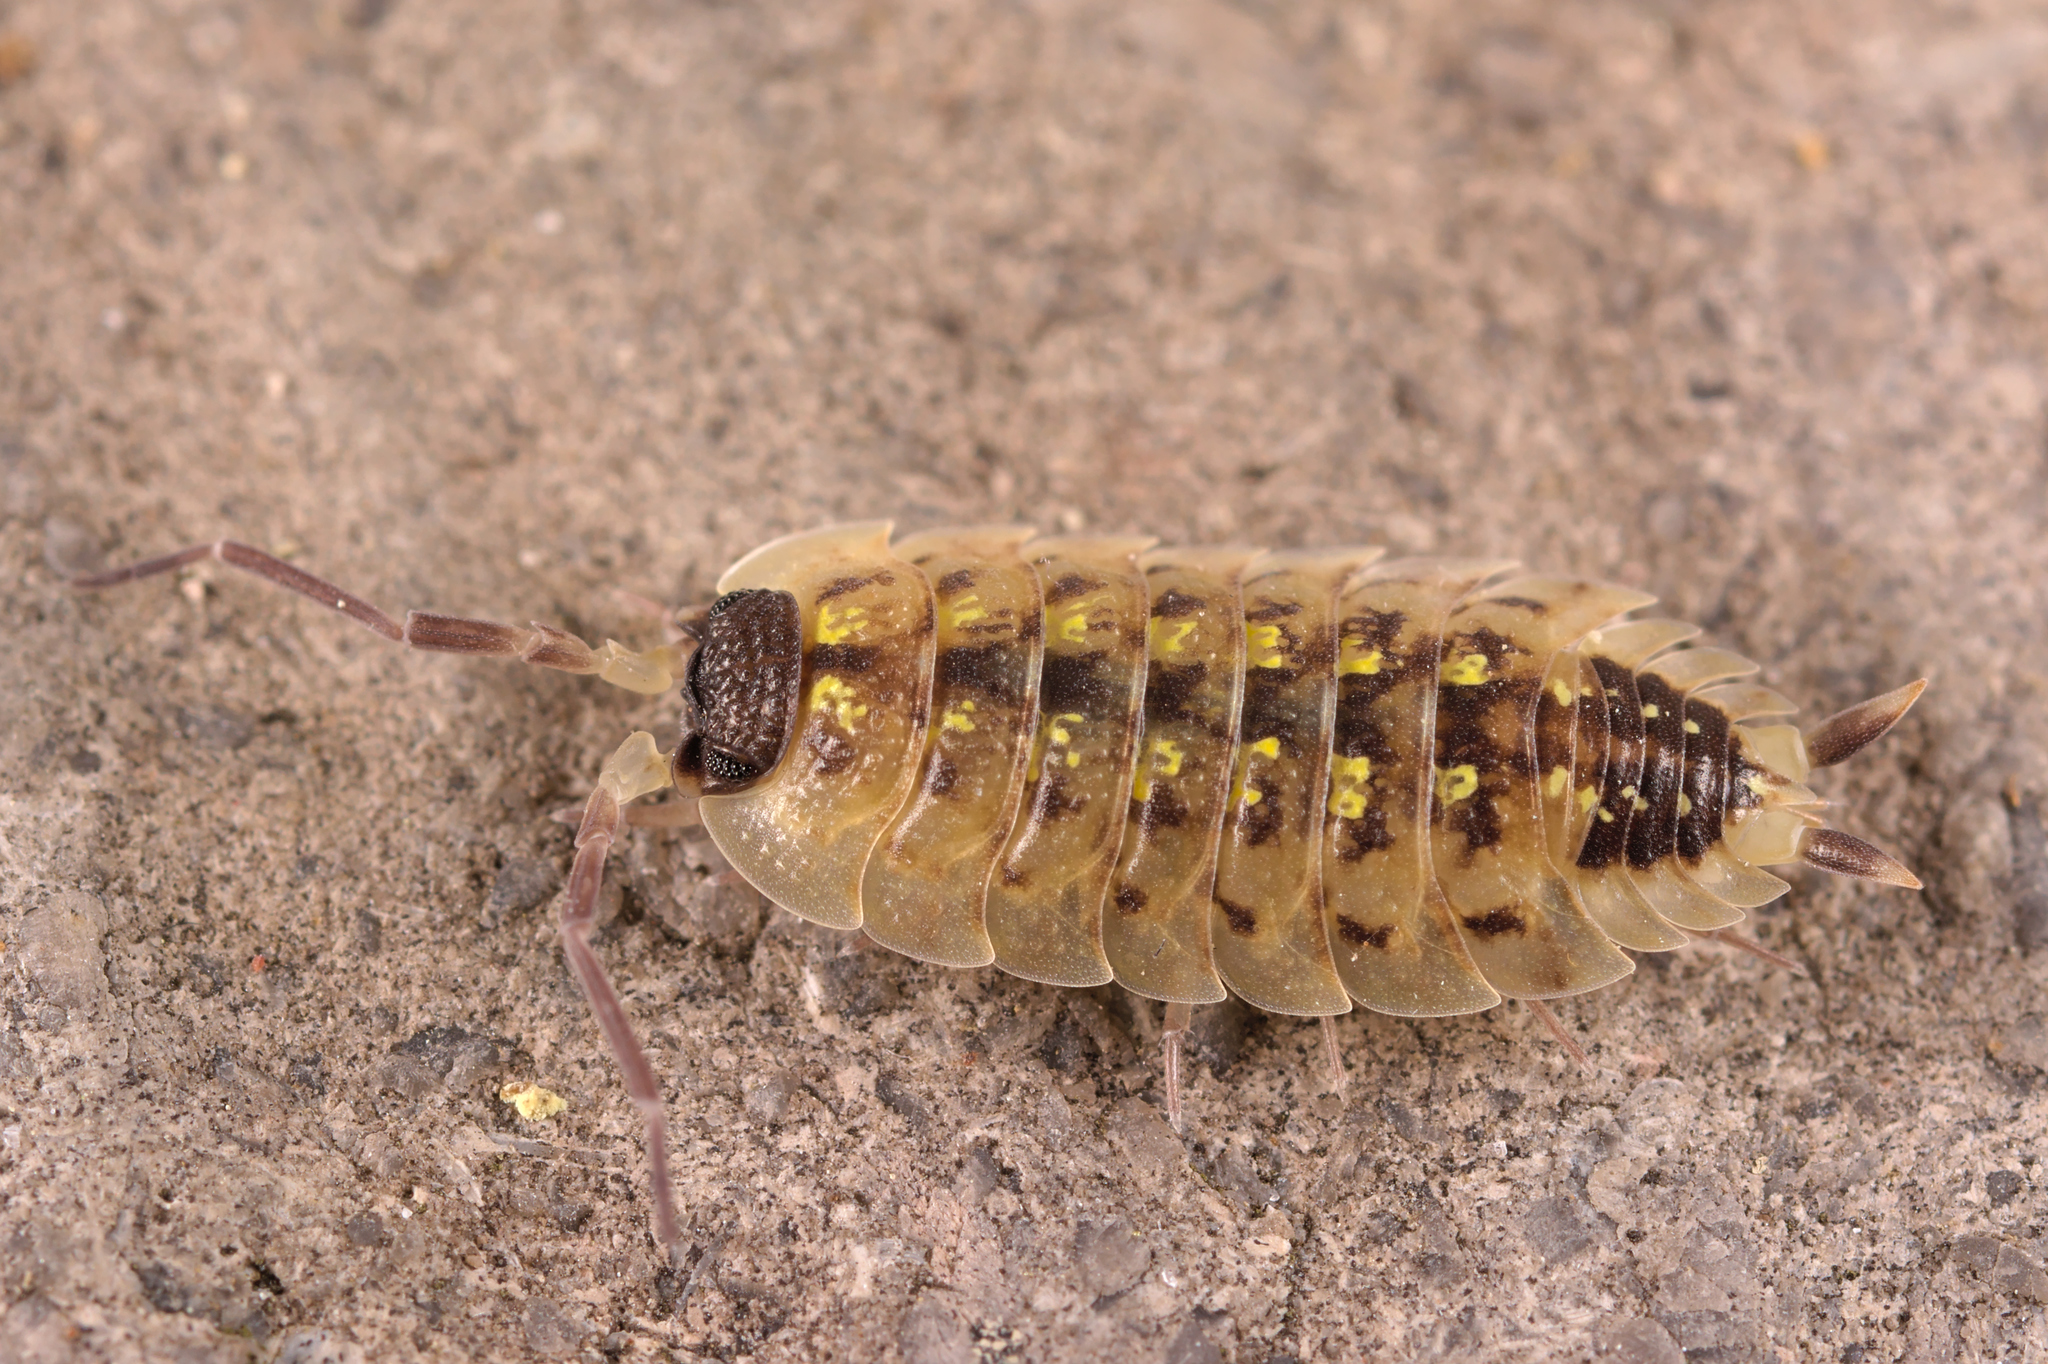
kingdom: Animalia
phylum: Arthropoda
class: Malacostraca
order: Isopoda
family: Porcellionidae
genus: Porcellio
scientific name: Porcellio spinicornis
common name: Painted woodlouse
